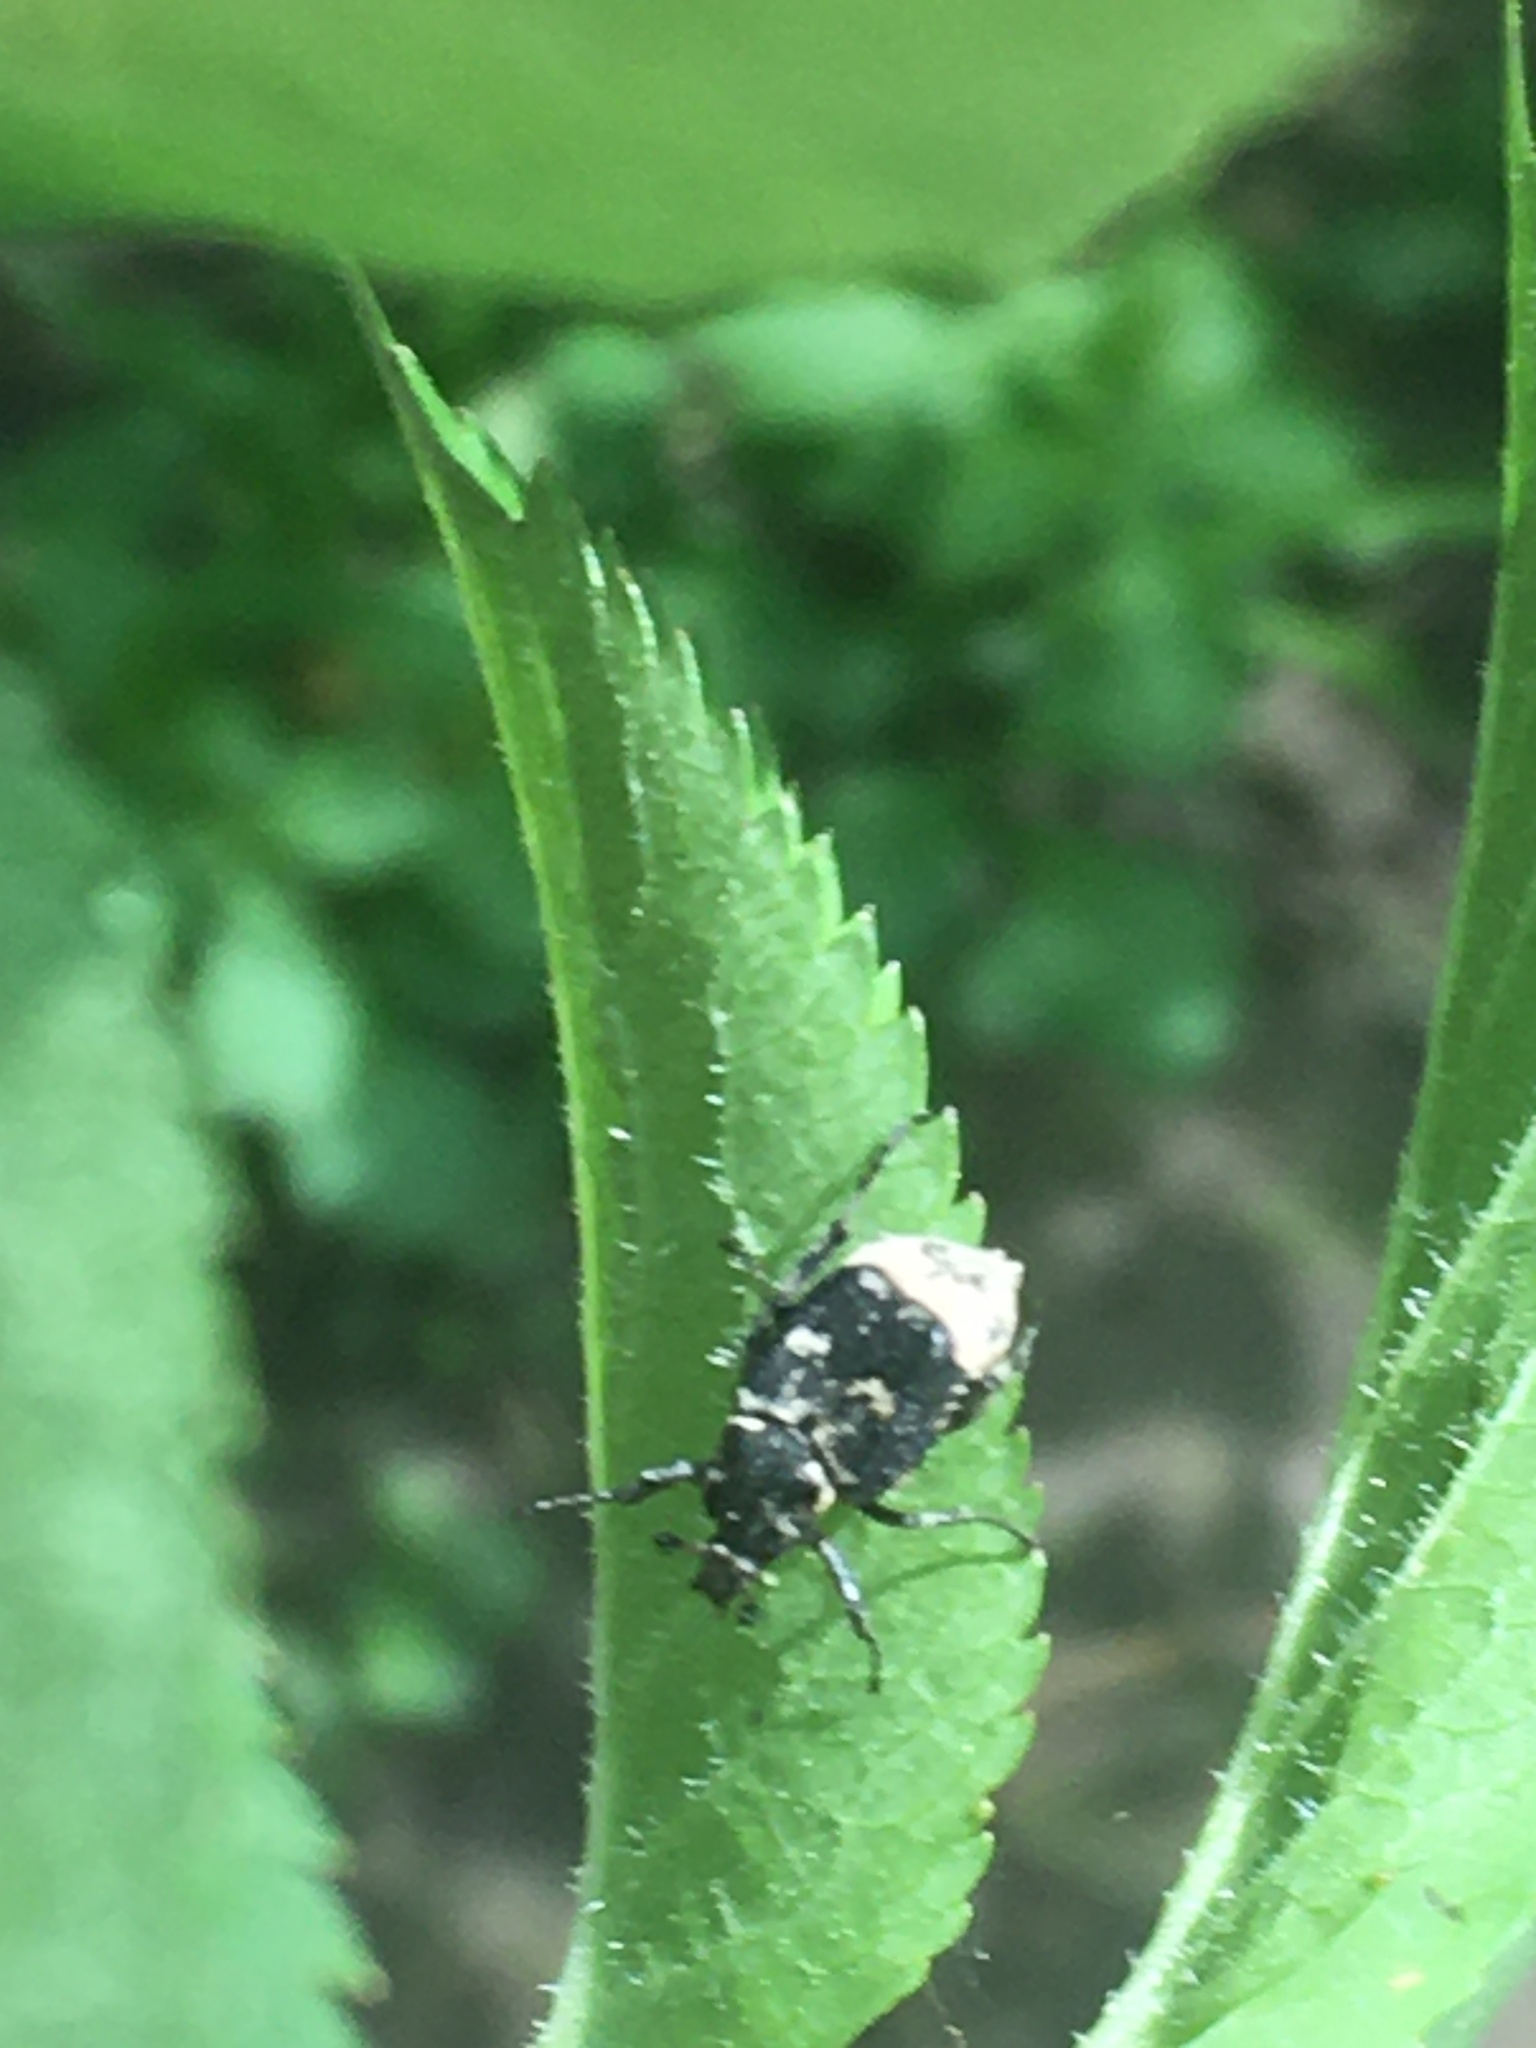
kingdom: Animalia
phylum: Arthropoda
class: Insecta
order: Coleoptera
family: Scarabaeidae
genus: Valgus
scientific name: Valgus hemipterus
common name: Bug flower chafer
